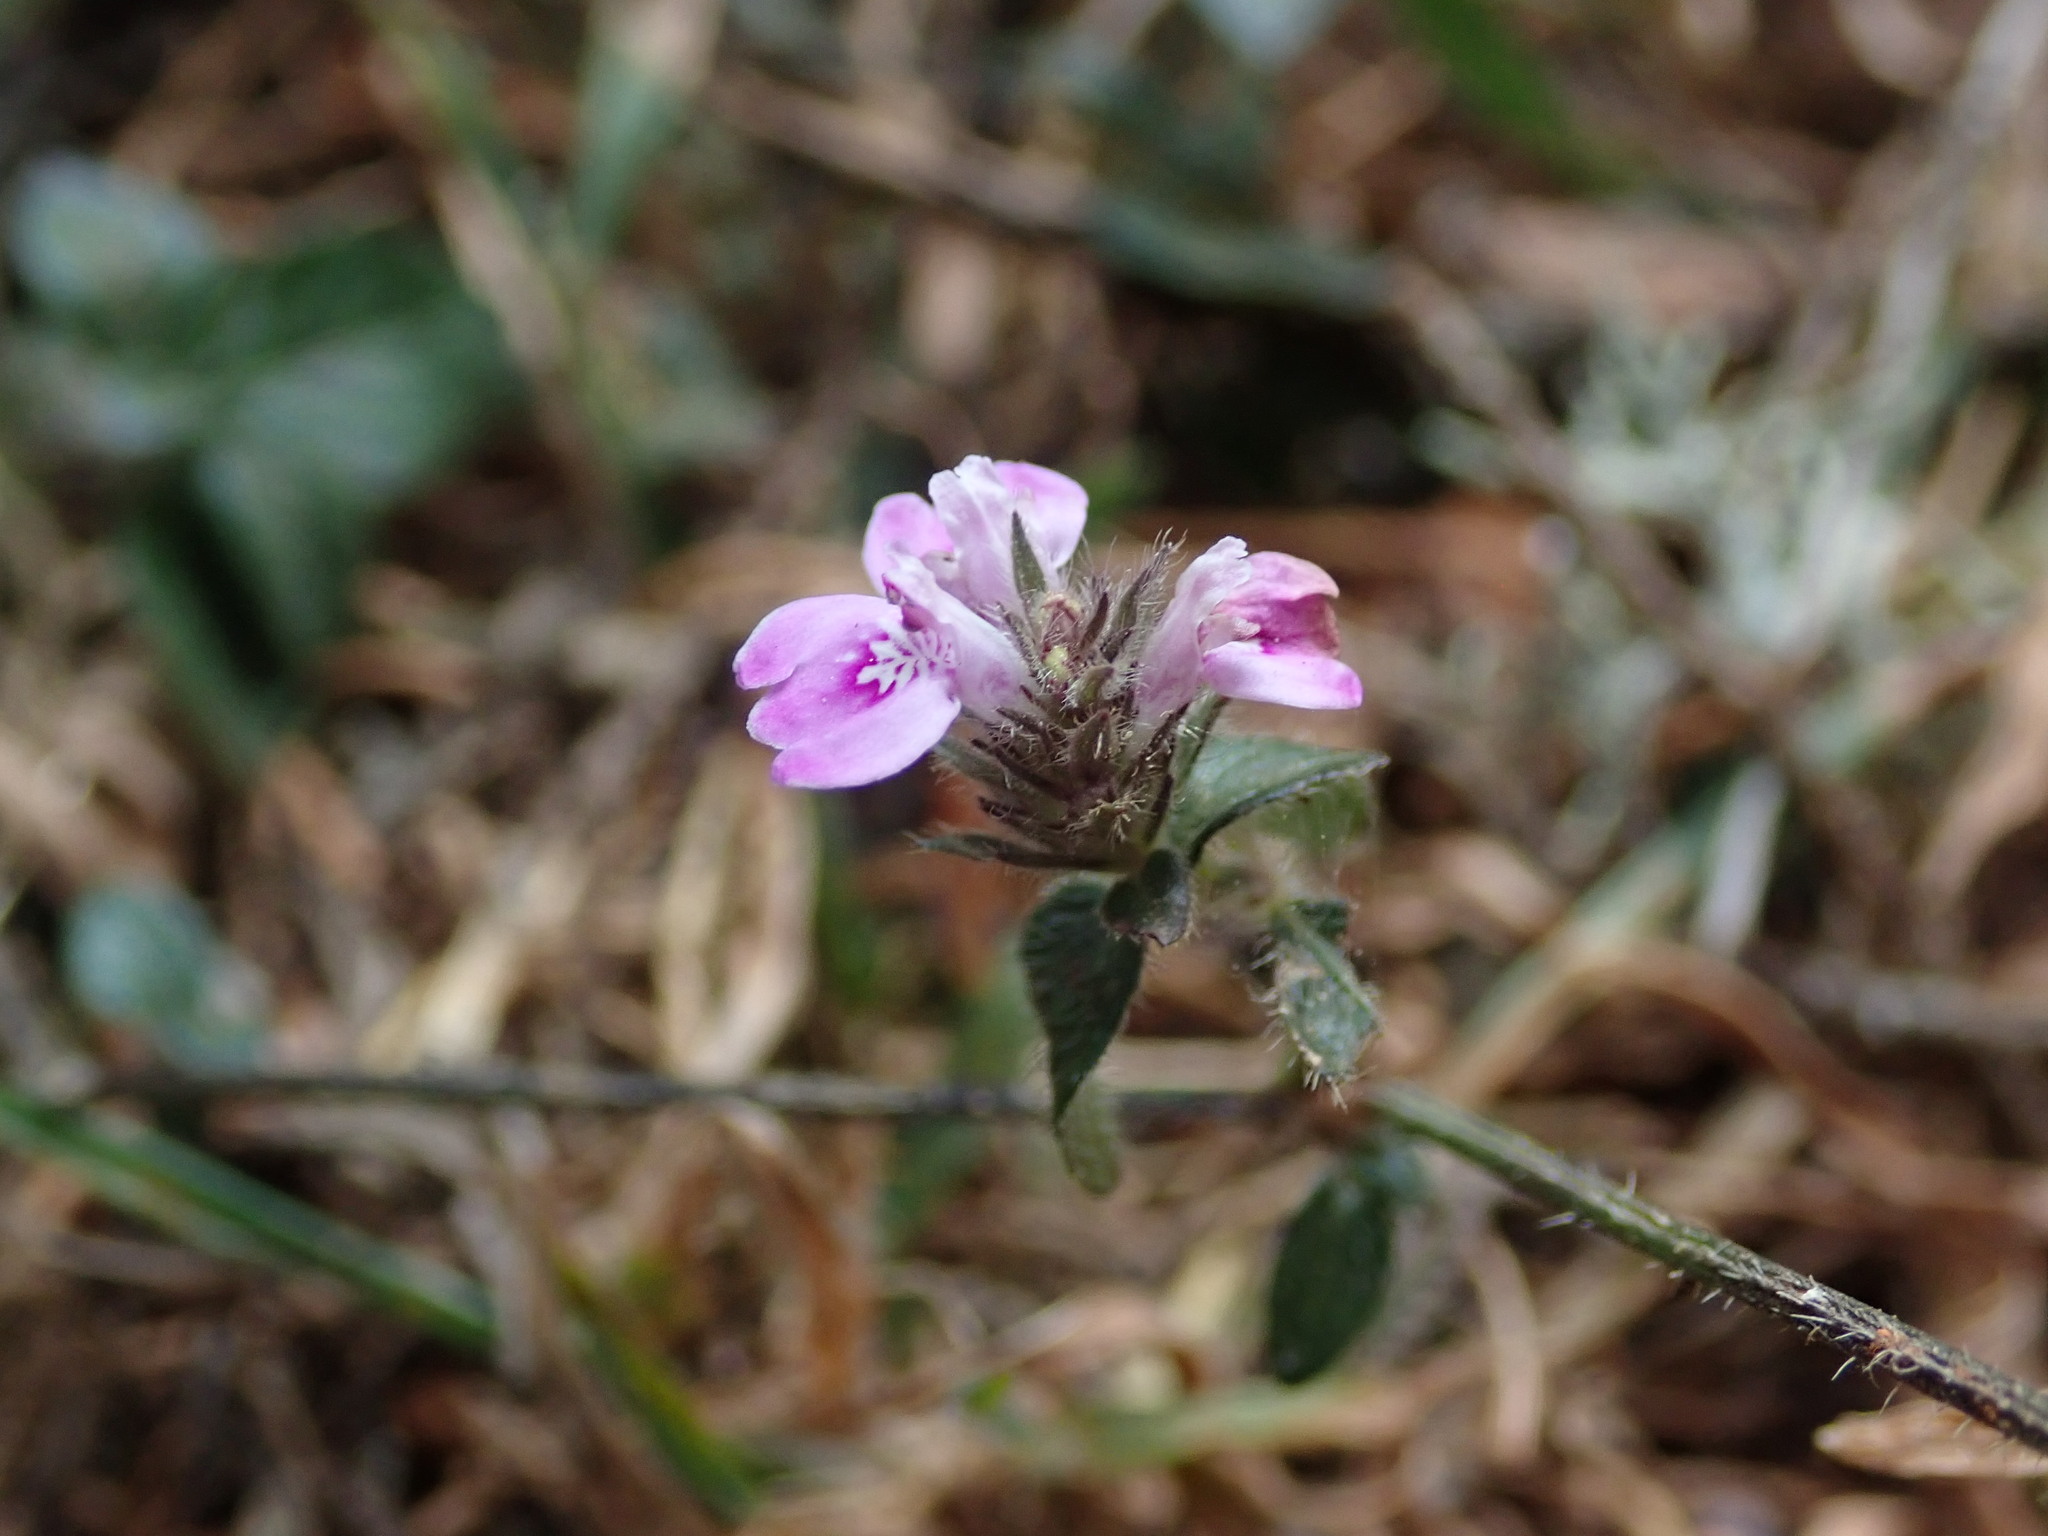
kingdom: Plantae
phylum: Tracheophyta
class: Magnoliopsida
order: Lamiales
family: Acanthaceae
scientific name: Acanthaceae
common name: Acanthaceae
